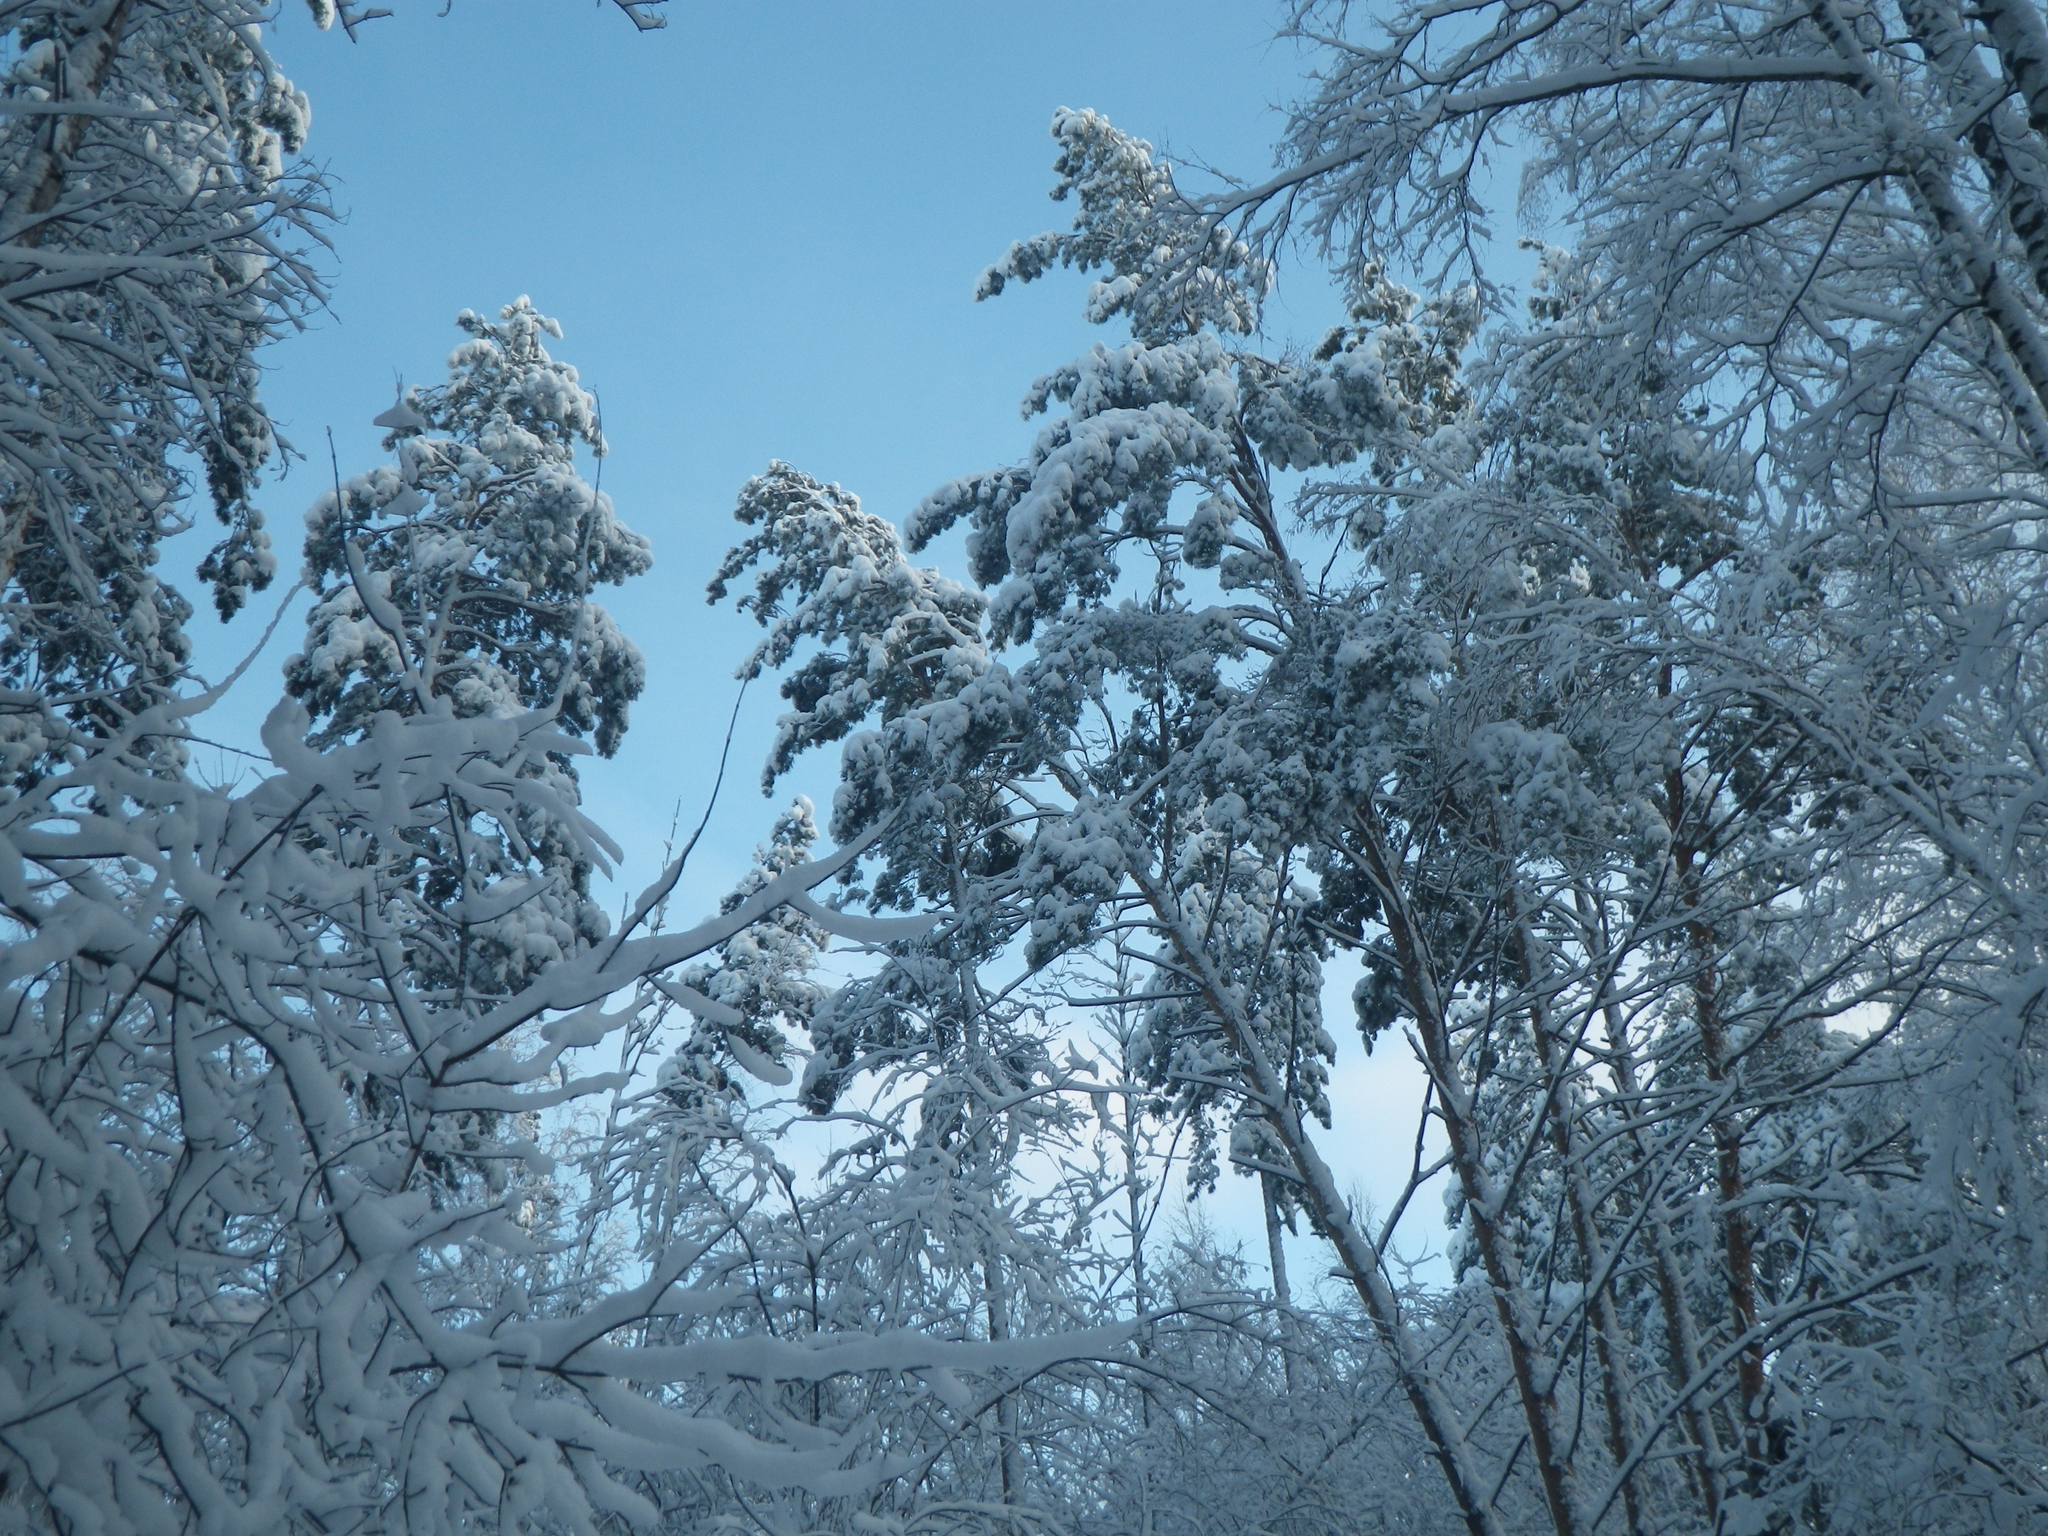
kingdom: Plantae
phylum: Tracheophyta
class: Pinopsida
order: Pinales
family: Pinaceae
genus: Pinus
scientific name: Pinus sylvestris
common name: Scots pine
